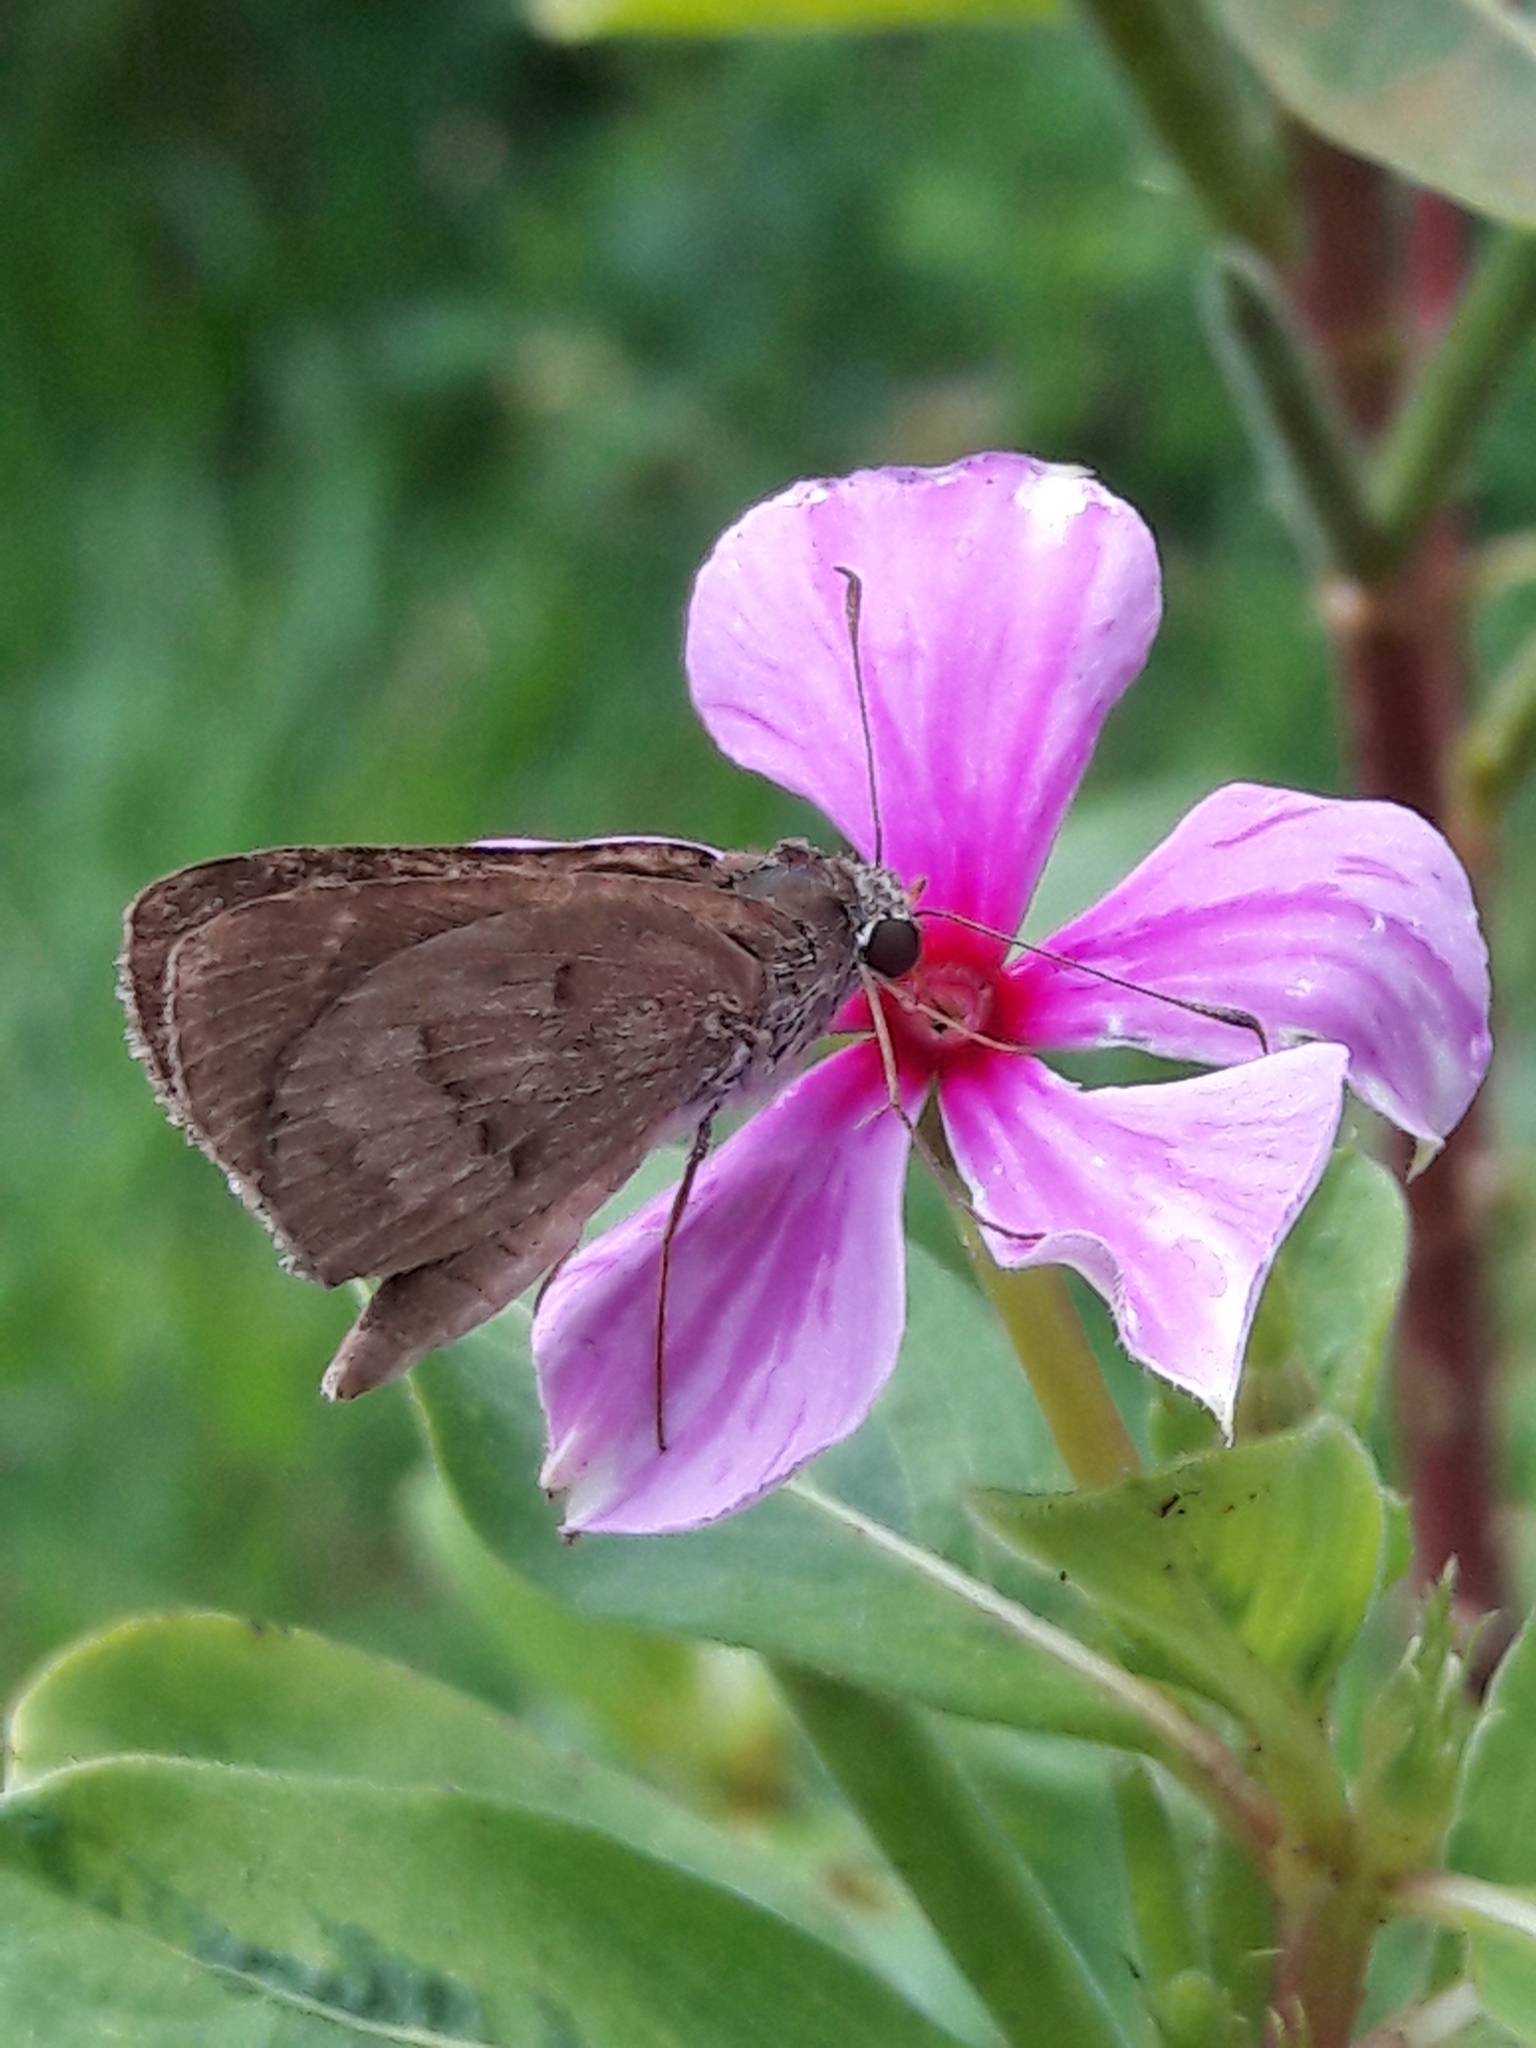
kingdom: Animalia
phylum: Arthropoda
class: Insecta
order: Lepidoptera
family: Hesperiidae
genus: Cymaenes
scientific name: Cymaenes gisca
